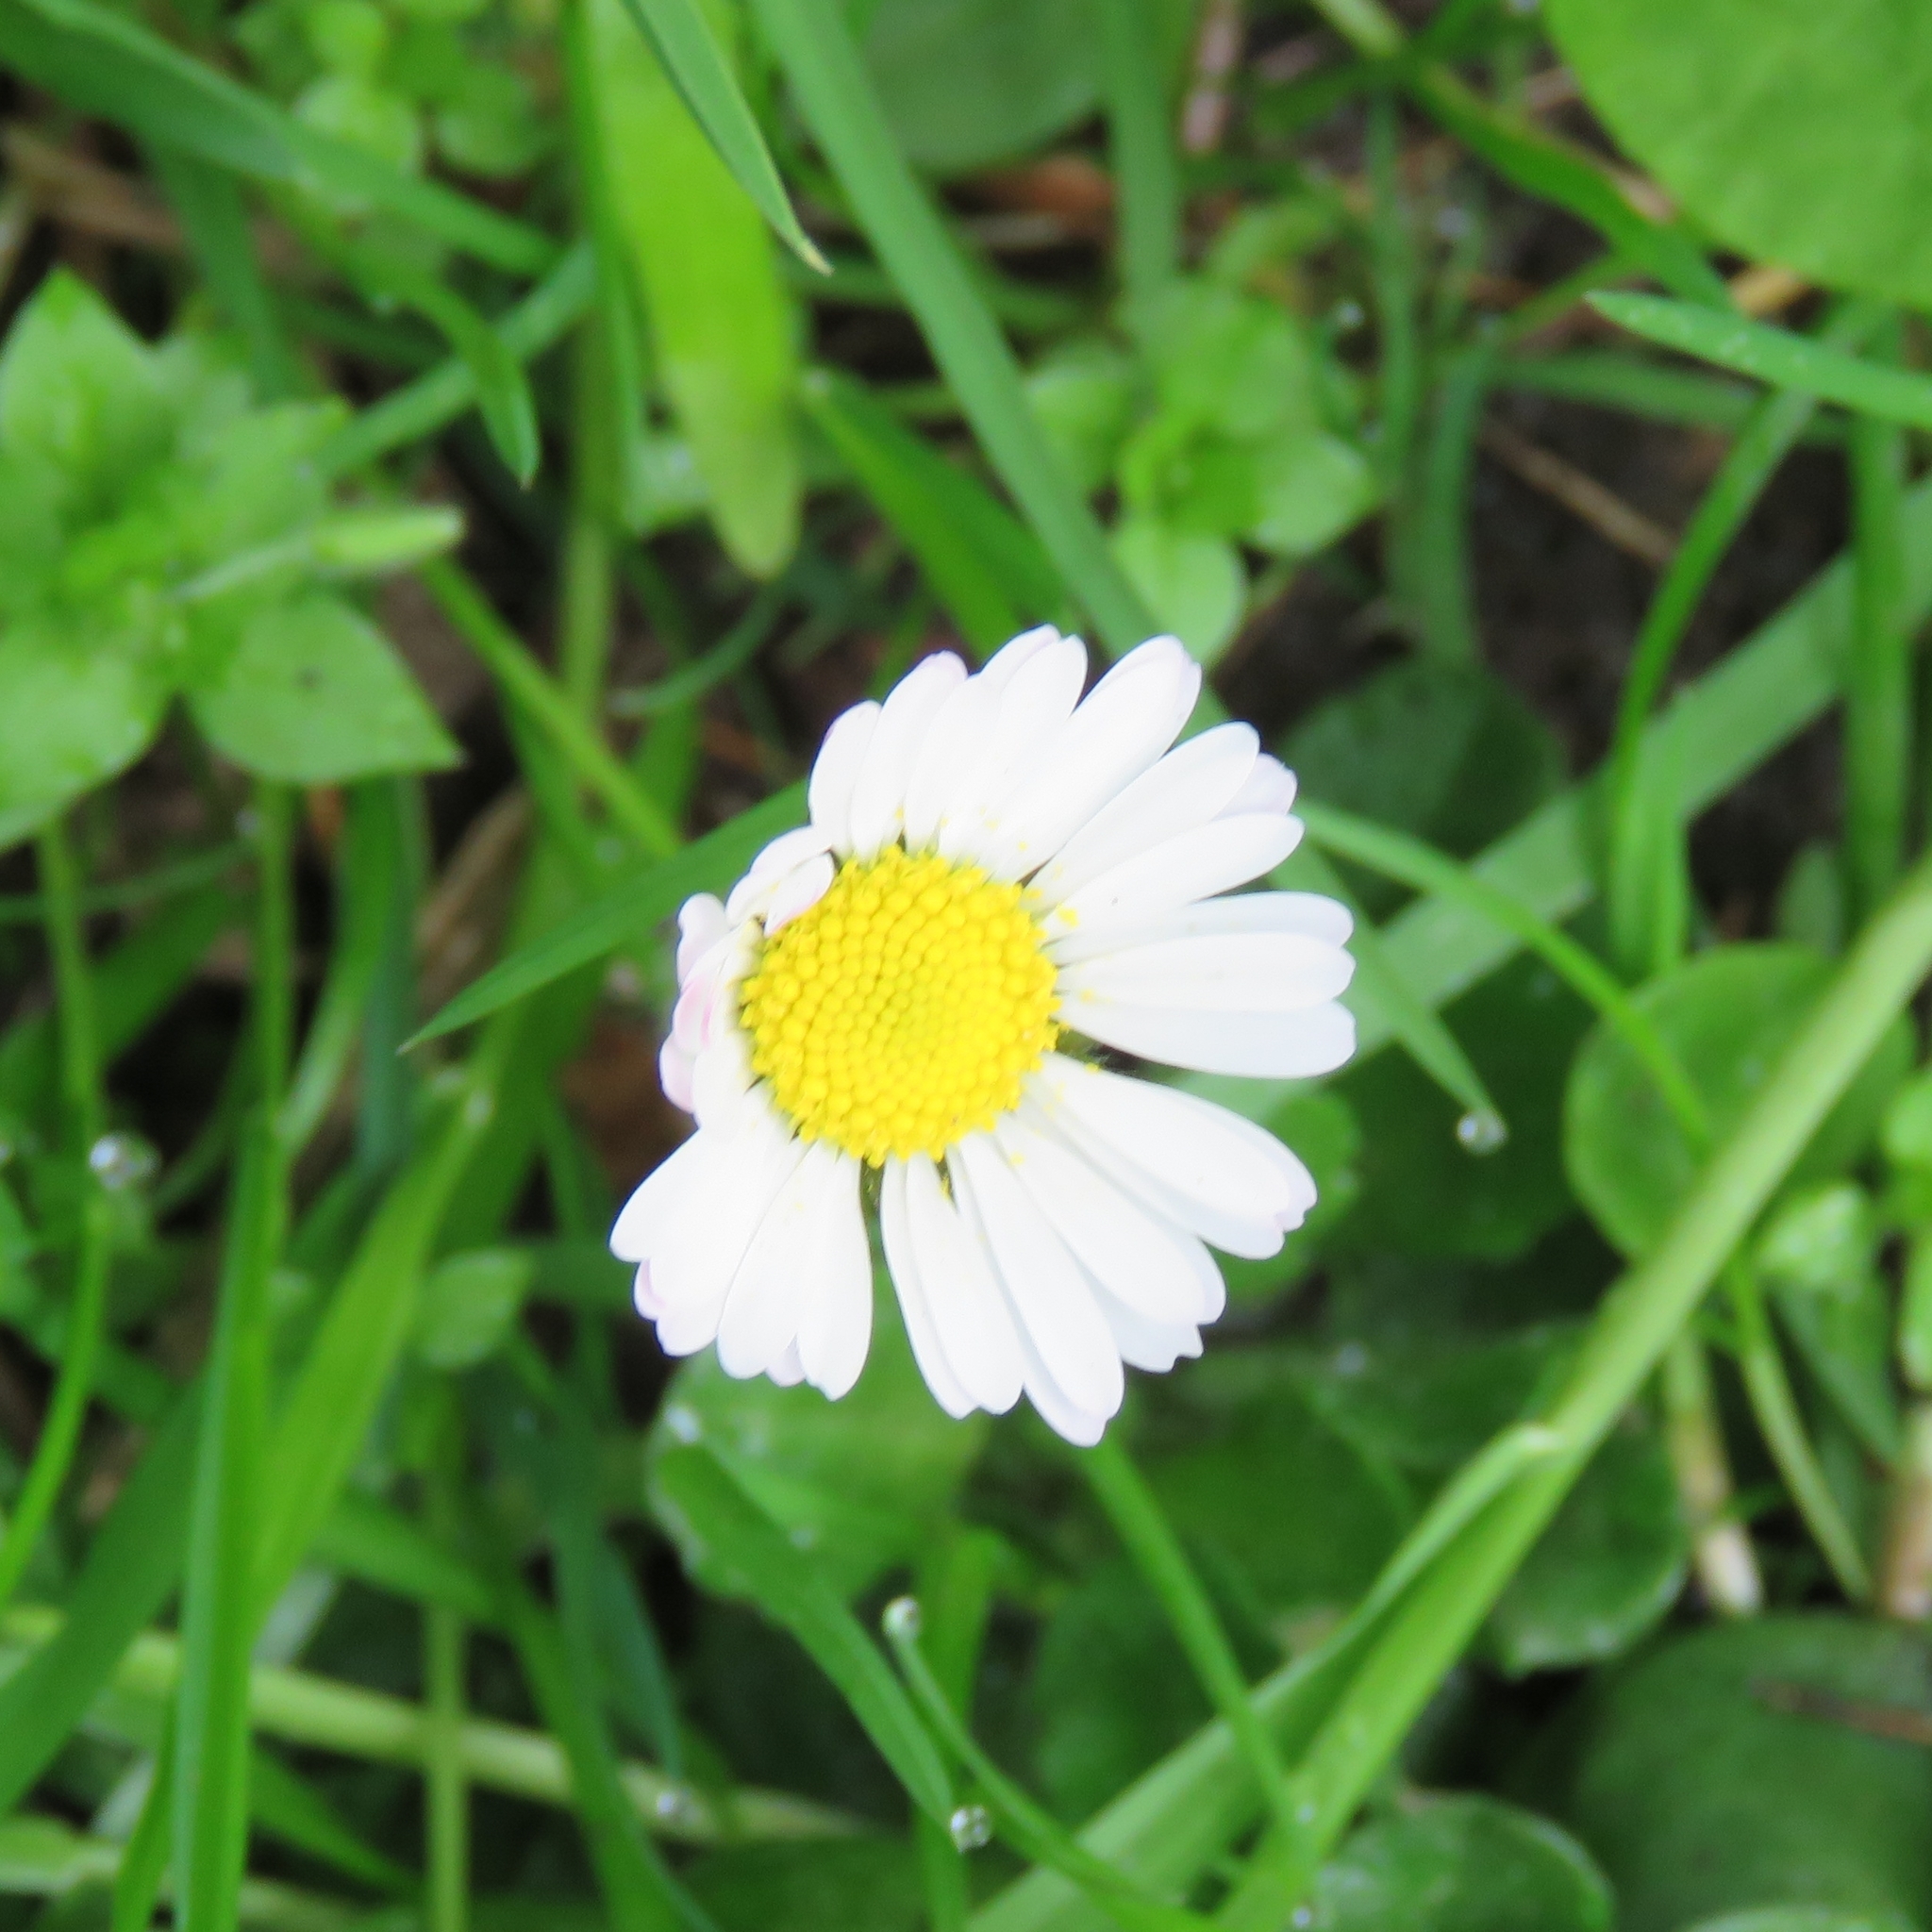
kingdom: Plantae
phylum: Tracheophyta
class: Magnoliopsida
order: Asterales
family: Asteraceae
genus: Bellis
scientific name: Bellis perennis
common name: Lawndaisy
